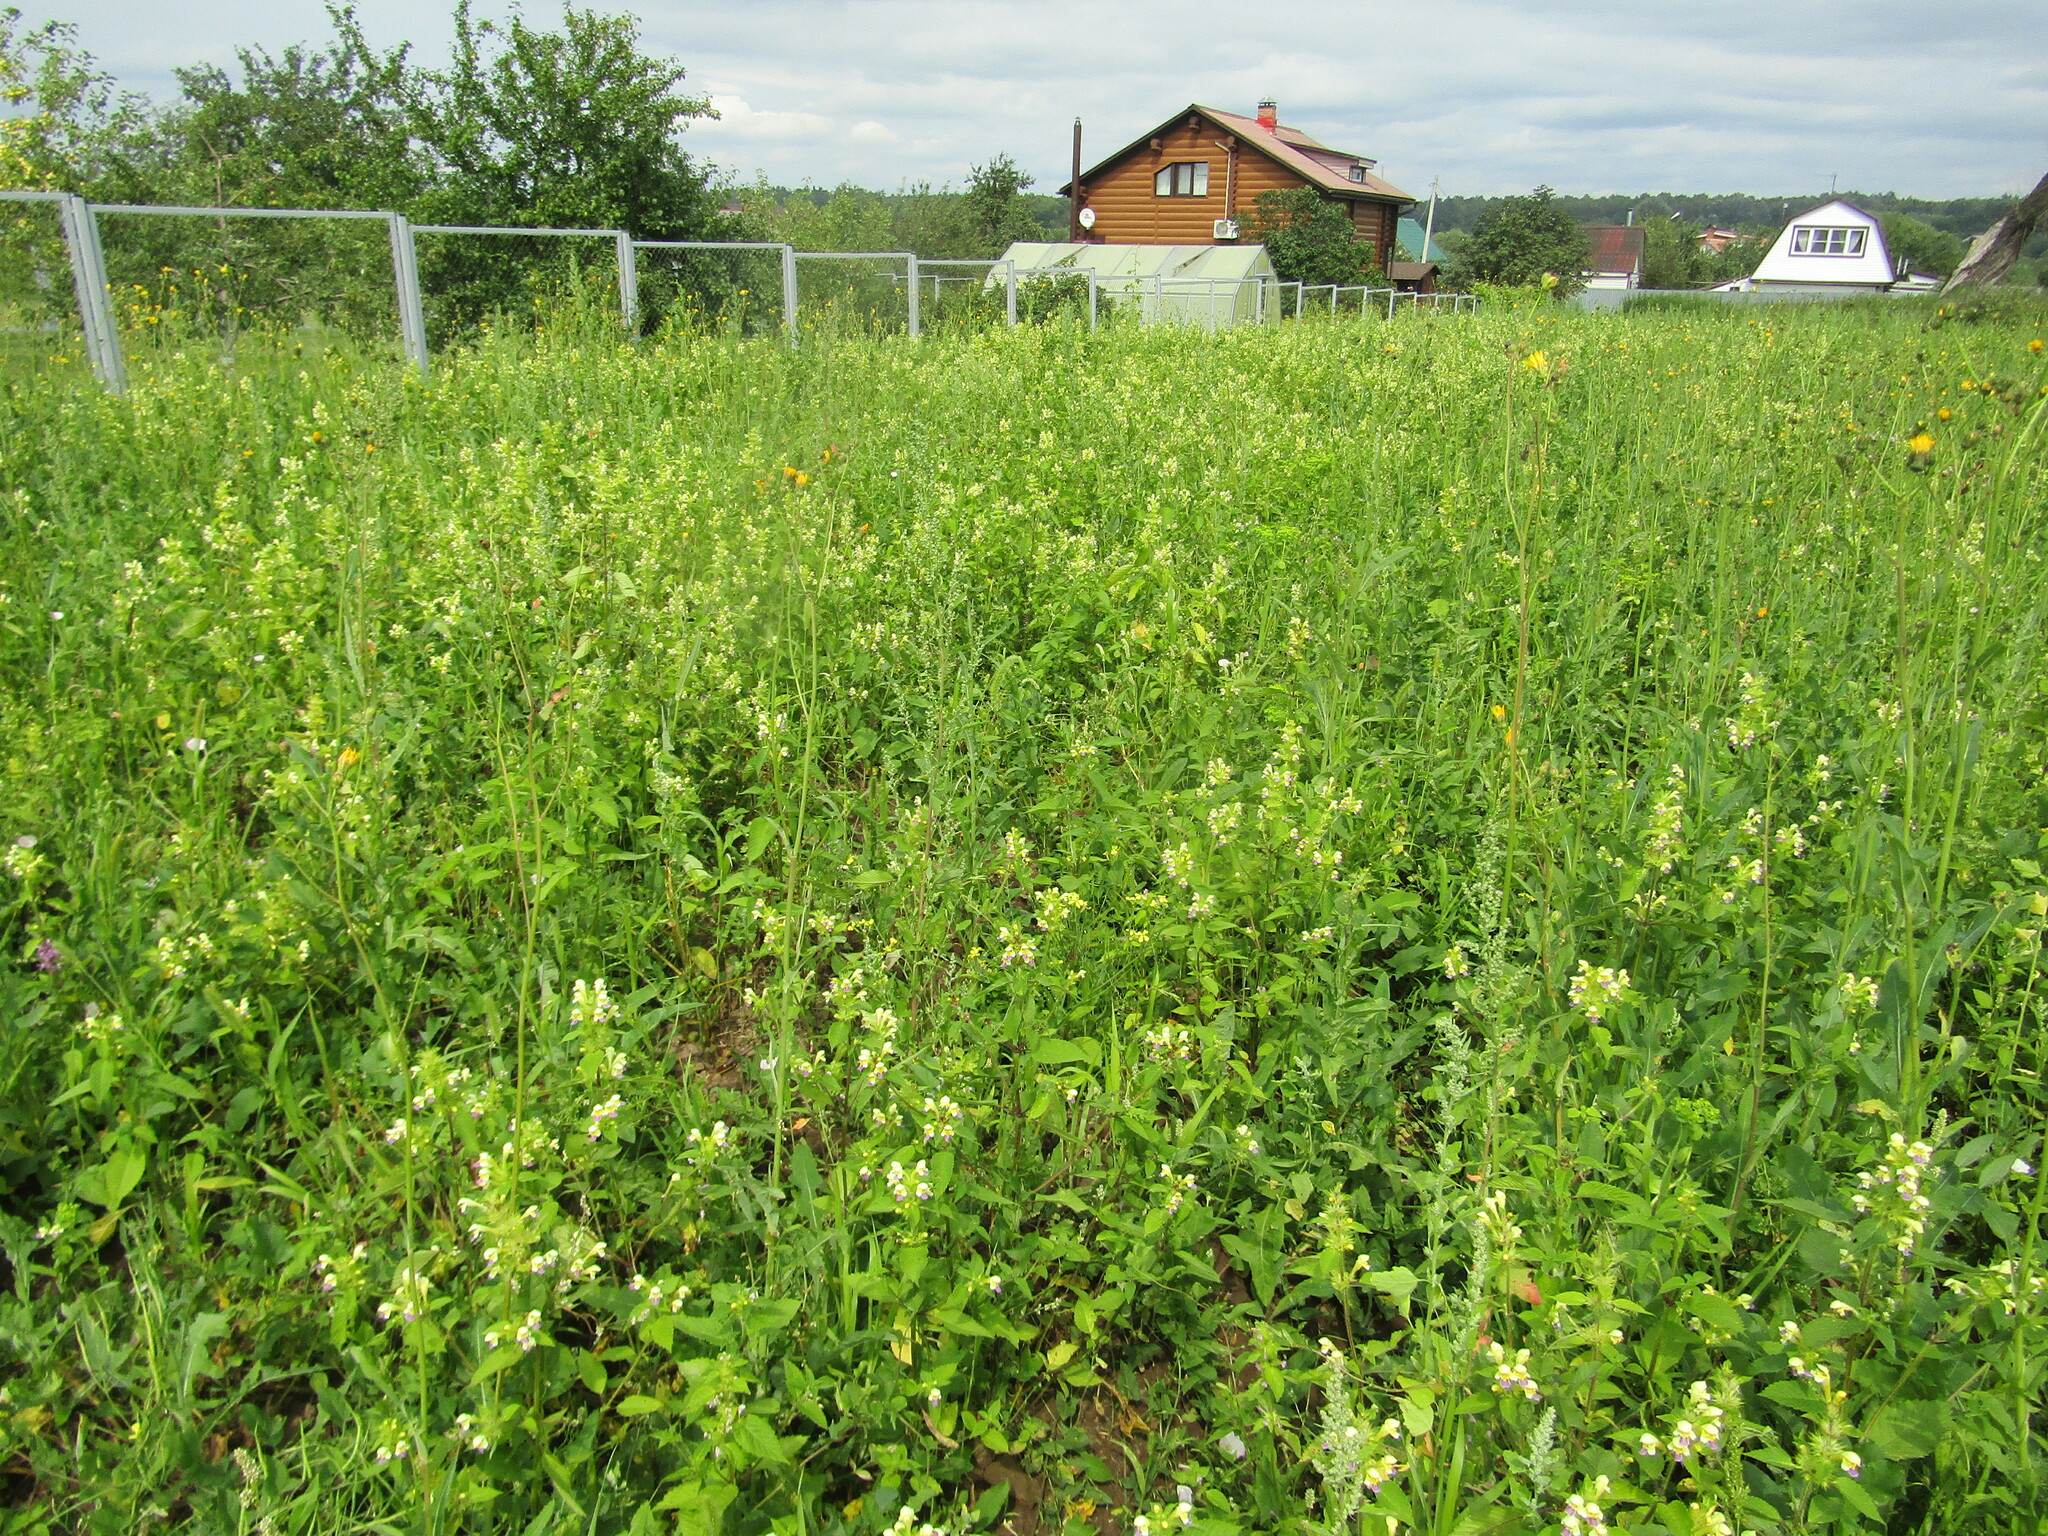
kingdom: Plantae
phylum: Tracheophyta
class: Magnoliopsida
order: Lamiales
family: Lamiaceae
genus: Galeopsis
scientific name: Galeopsis speciosa
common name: Large-flowered hemp-nettle
